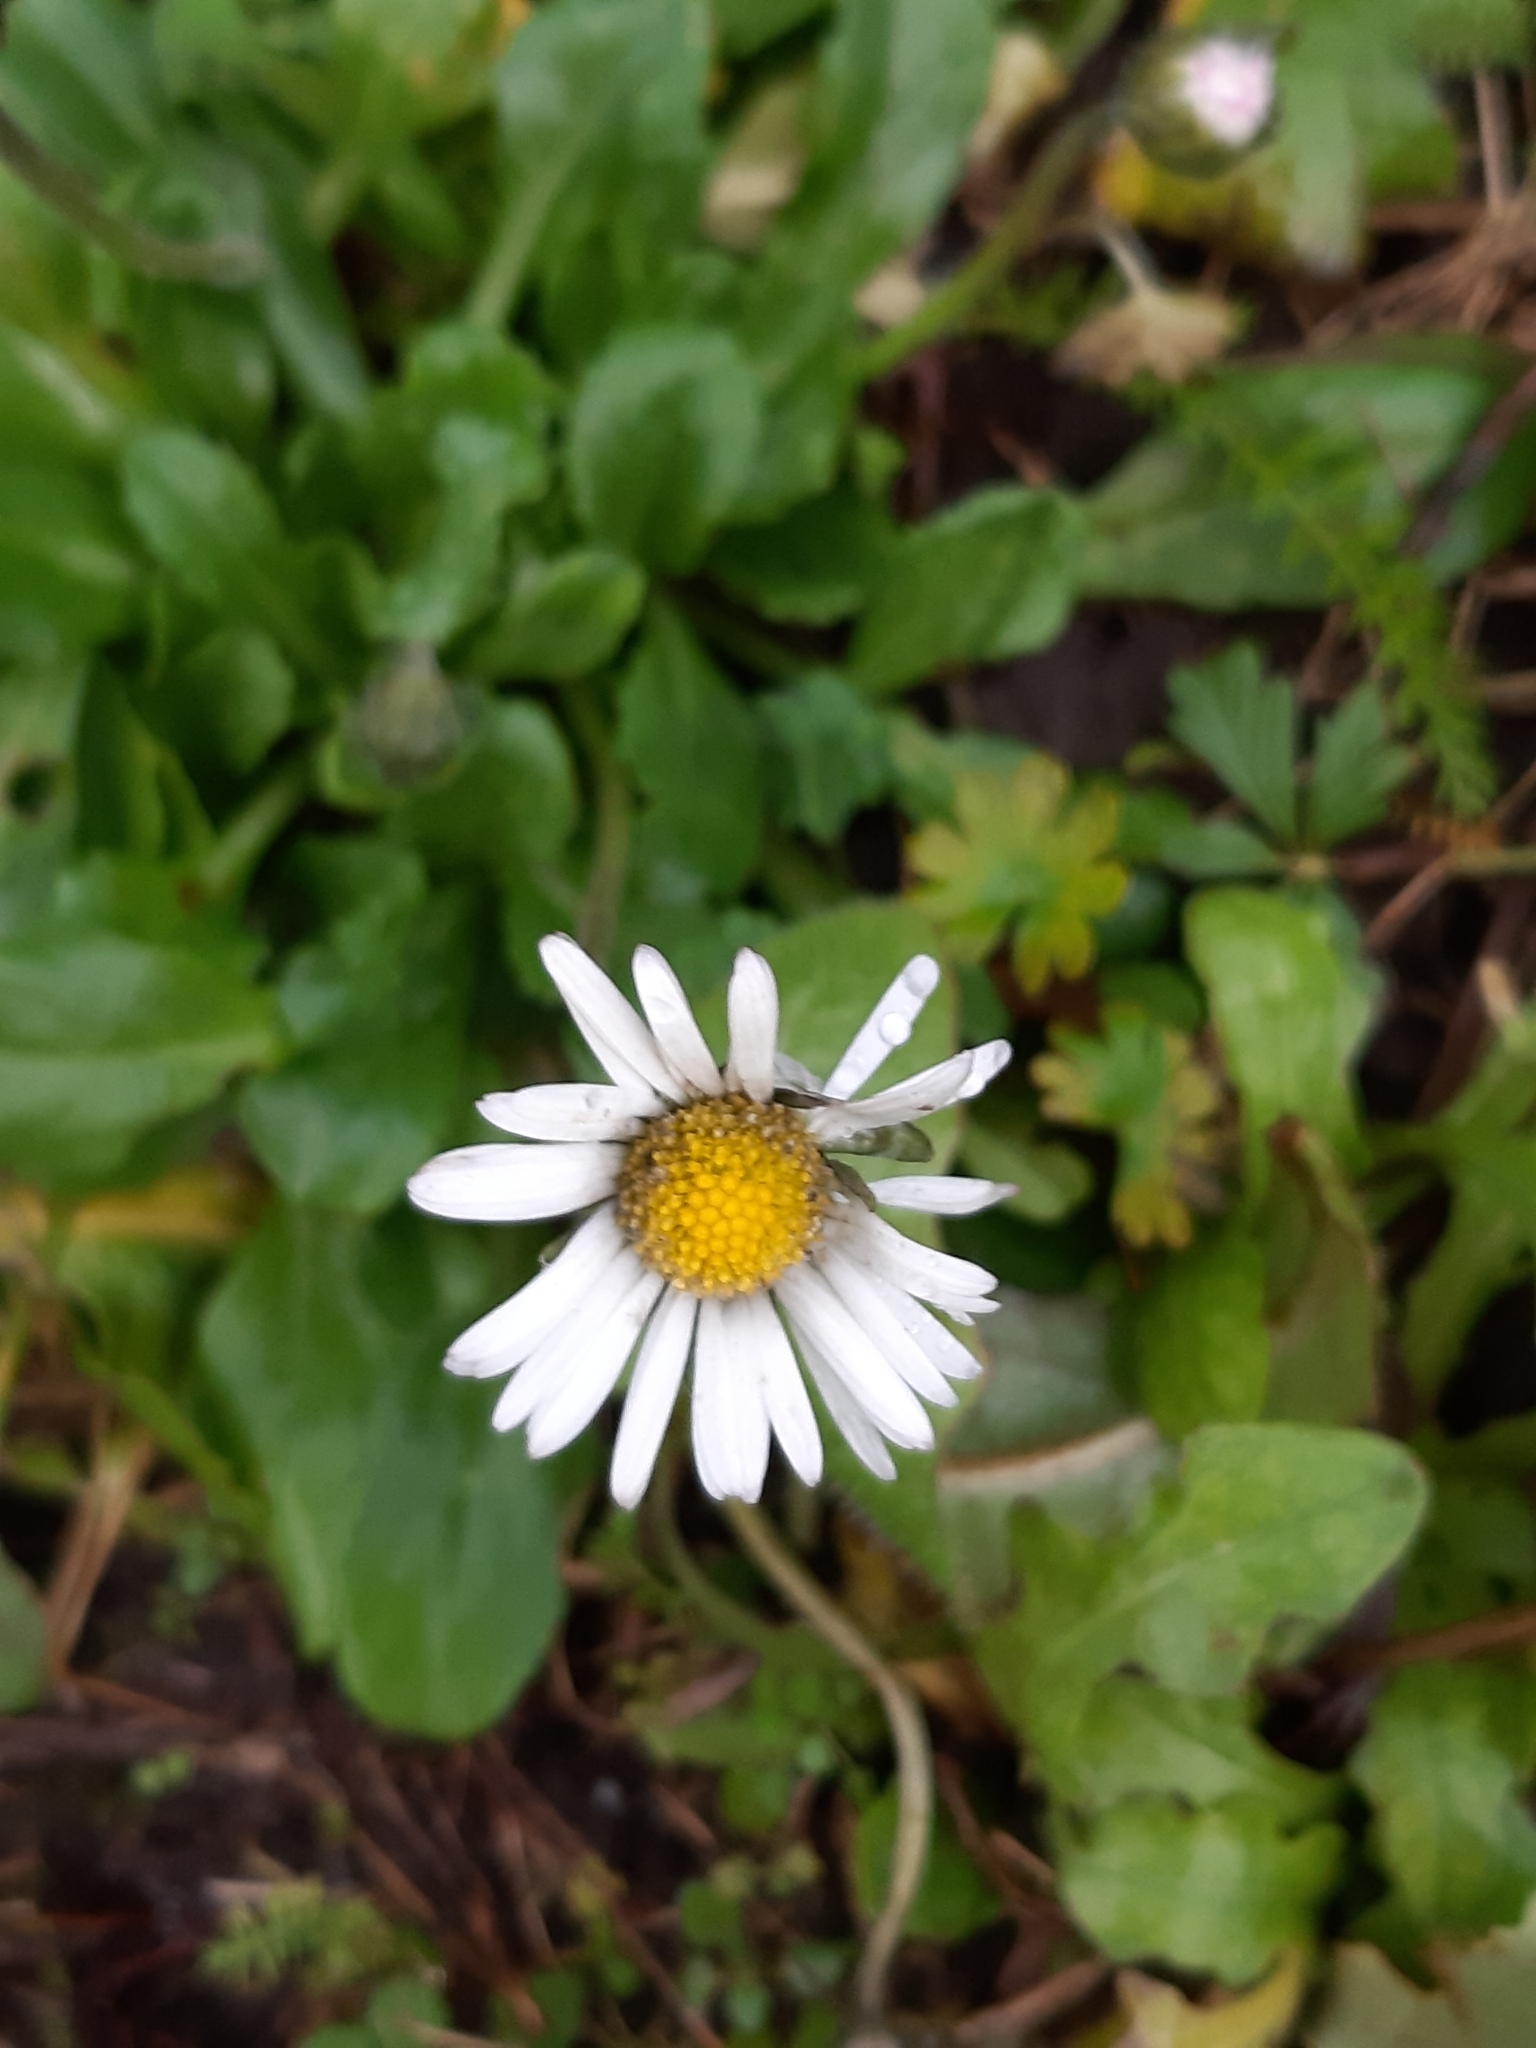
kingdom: Plantae
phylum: Tracheophyta
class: Magnoliopsida
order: Asterales
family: Asteraceae
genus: Bellis
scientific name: Bellis perennis
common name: Lawndaisy
